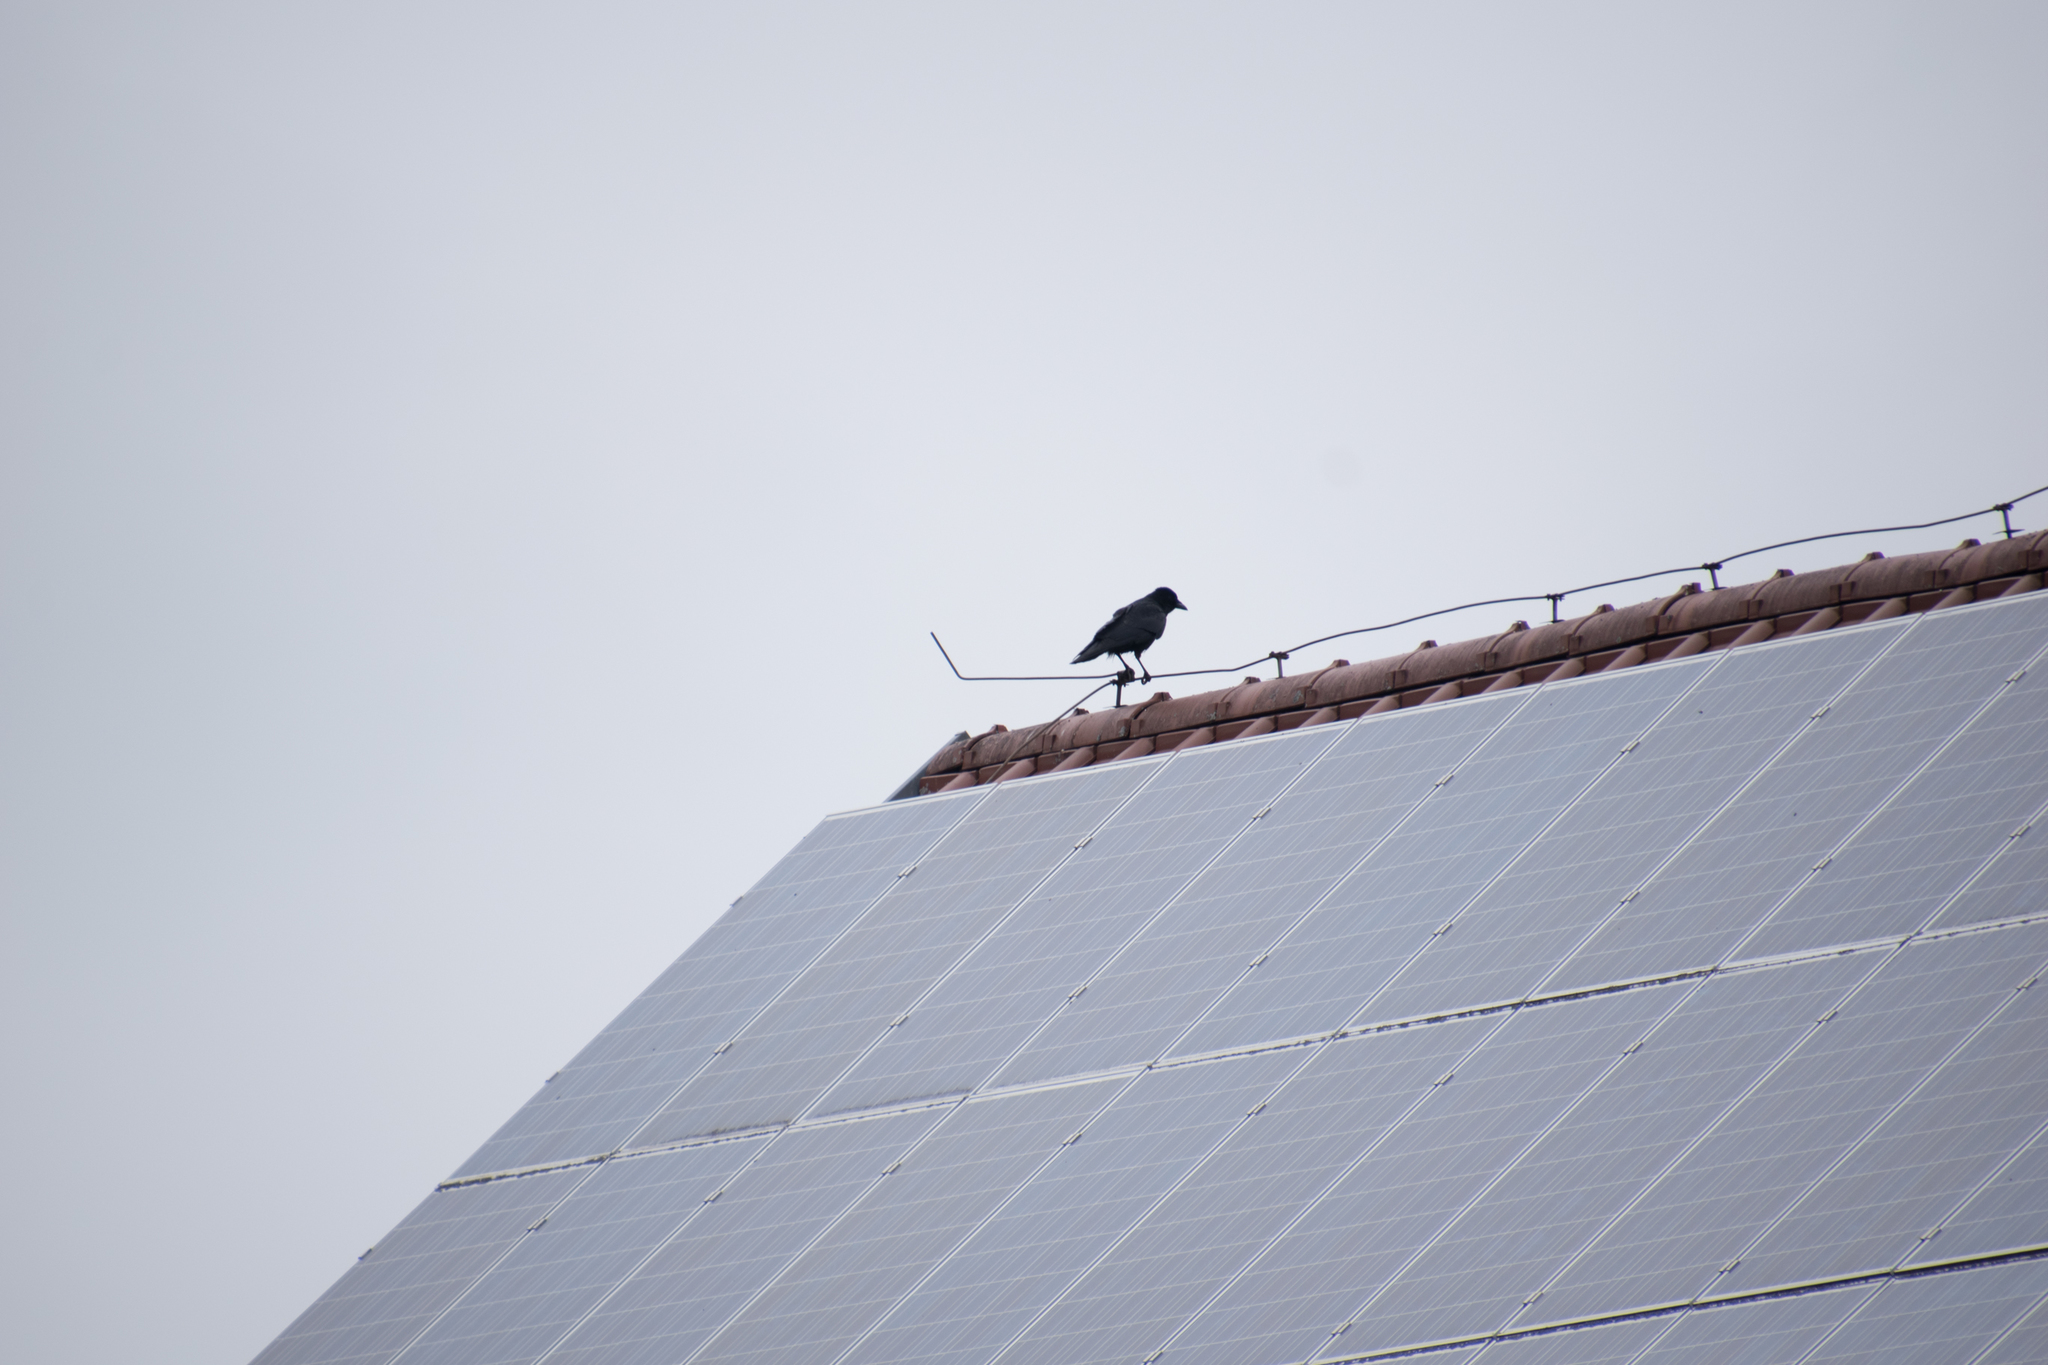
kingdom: Animalia
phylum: Chordata
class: Aves
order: Passeriformes
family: Corvidae
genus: Corvus
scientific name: Corvus corone
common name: Carrion crow
